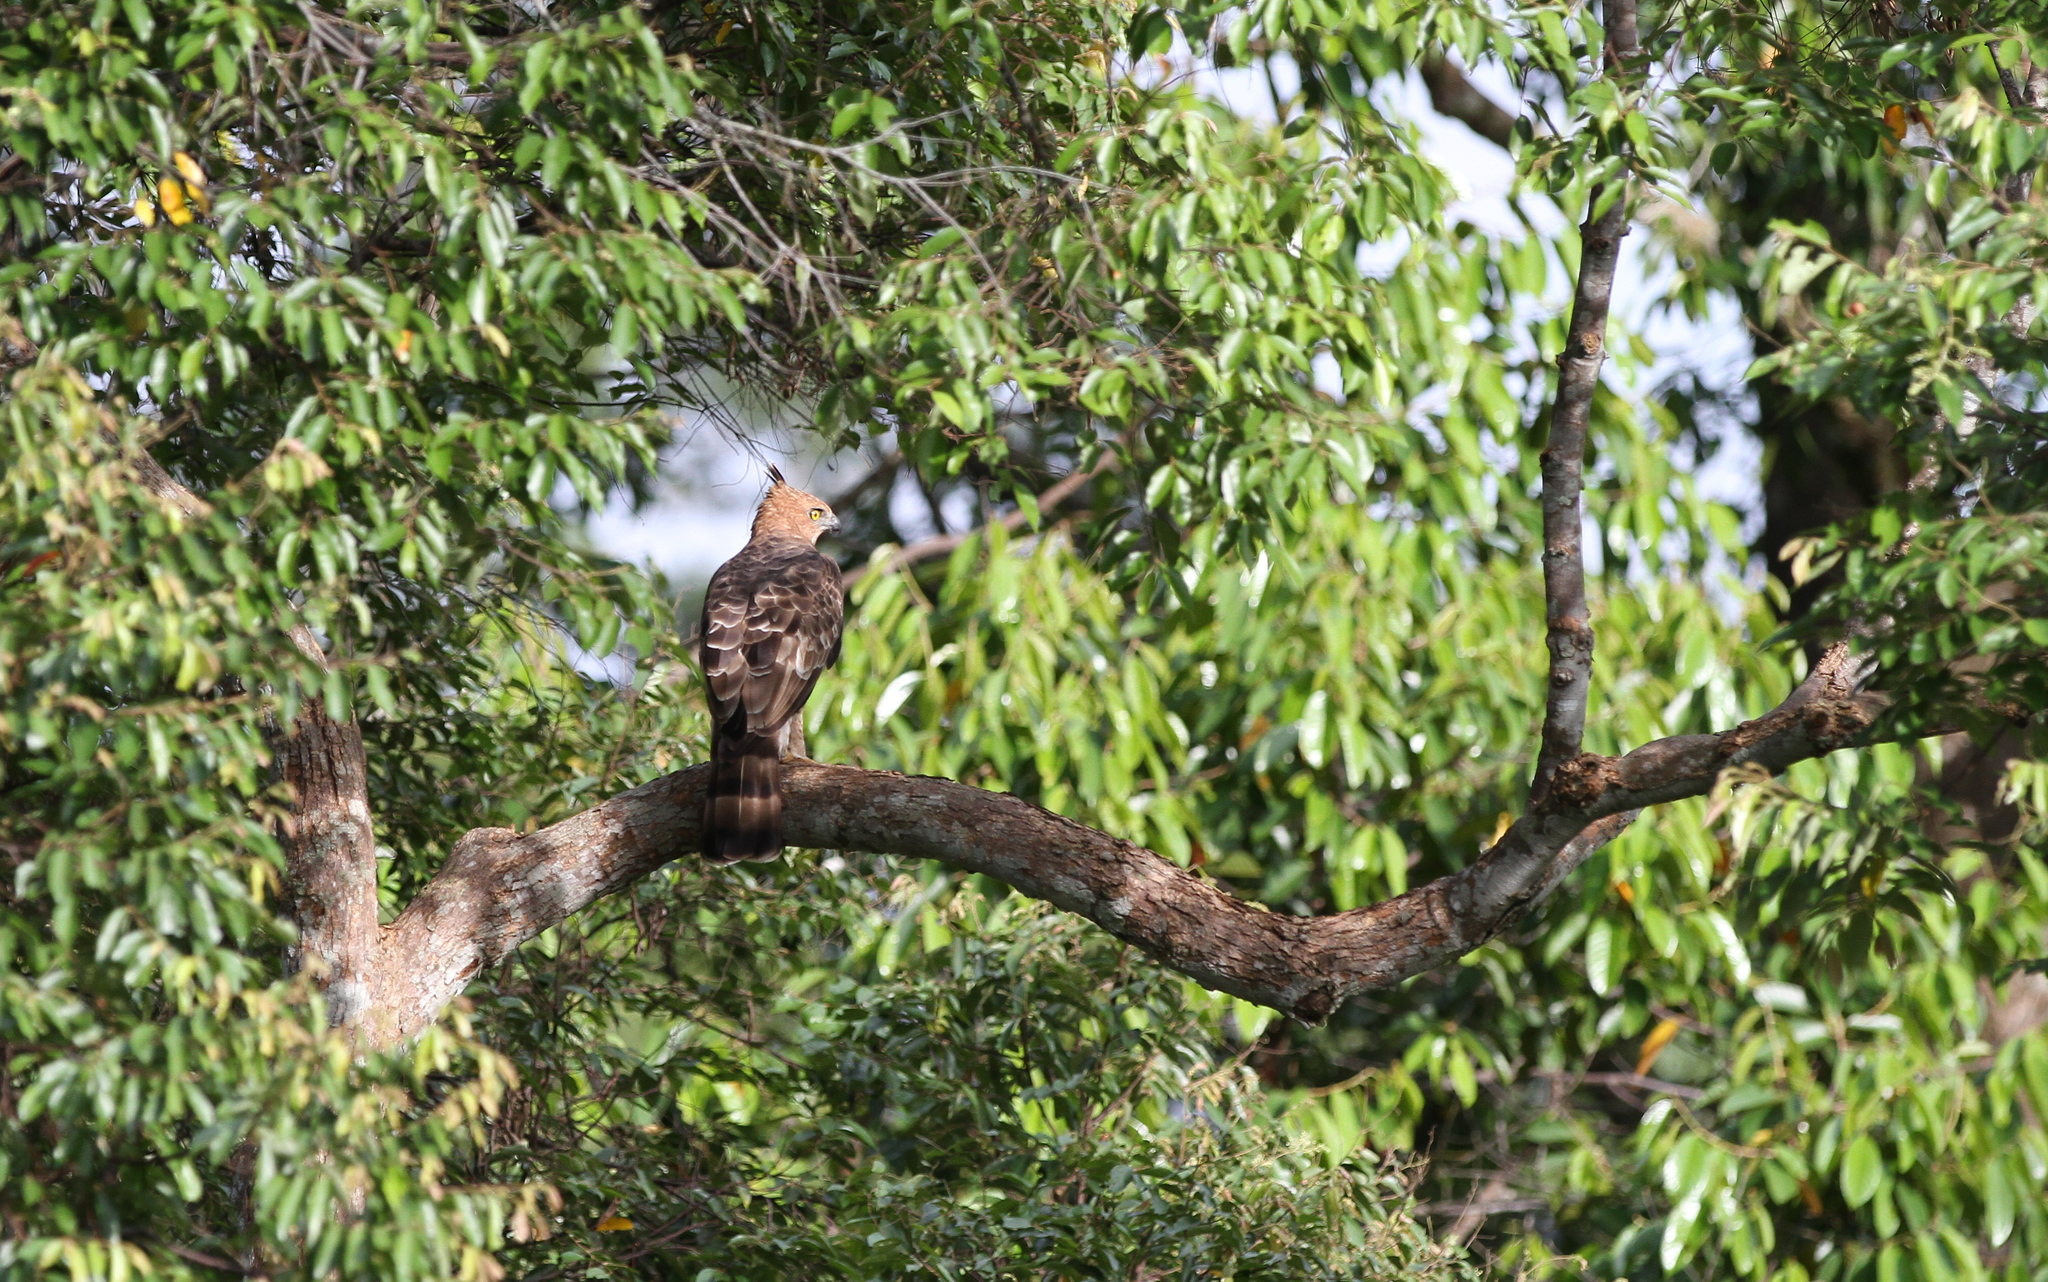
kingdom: Animalia
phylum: Chordata
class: Aves
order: Accipitriformes
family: Accipitridae
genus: Nisaetus
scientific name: Nisaetus nanus
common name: Wallace's hawk-eagle
